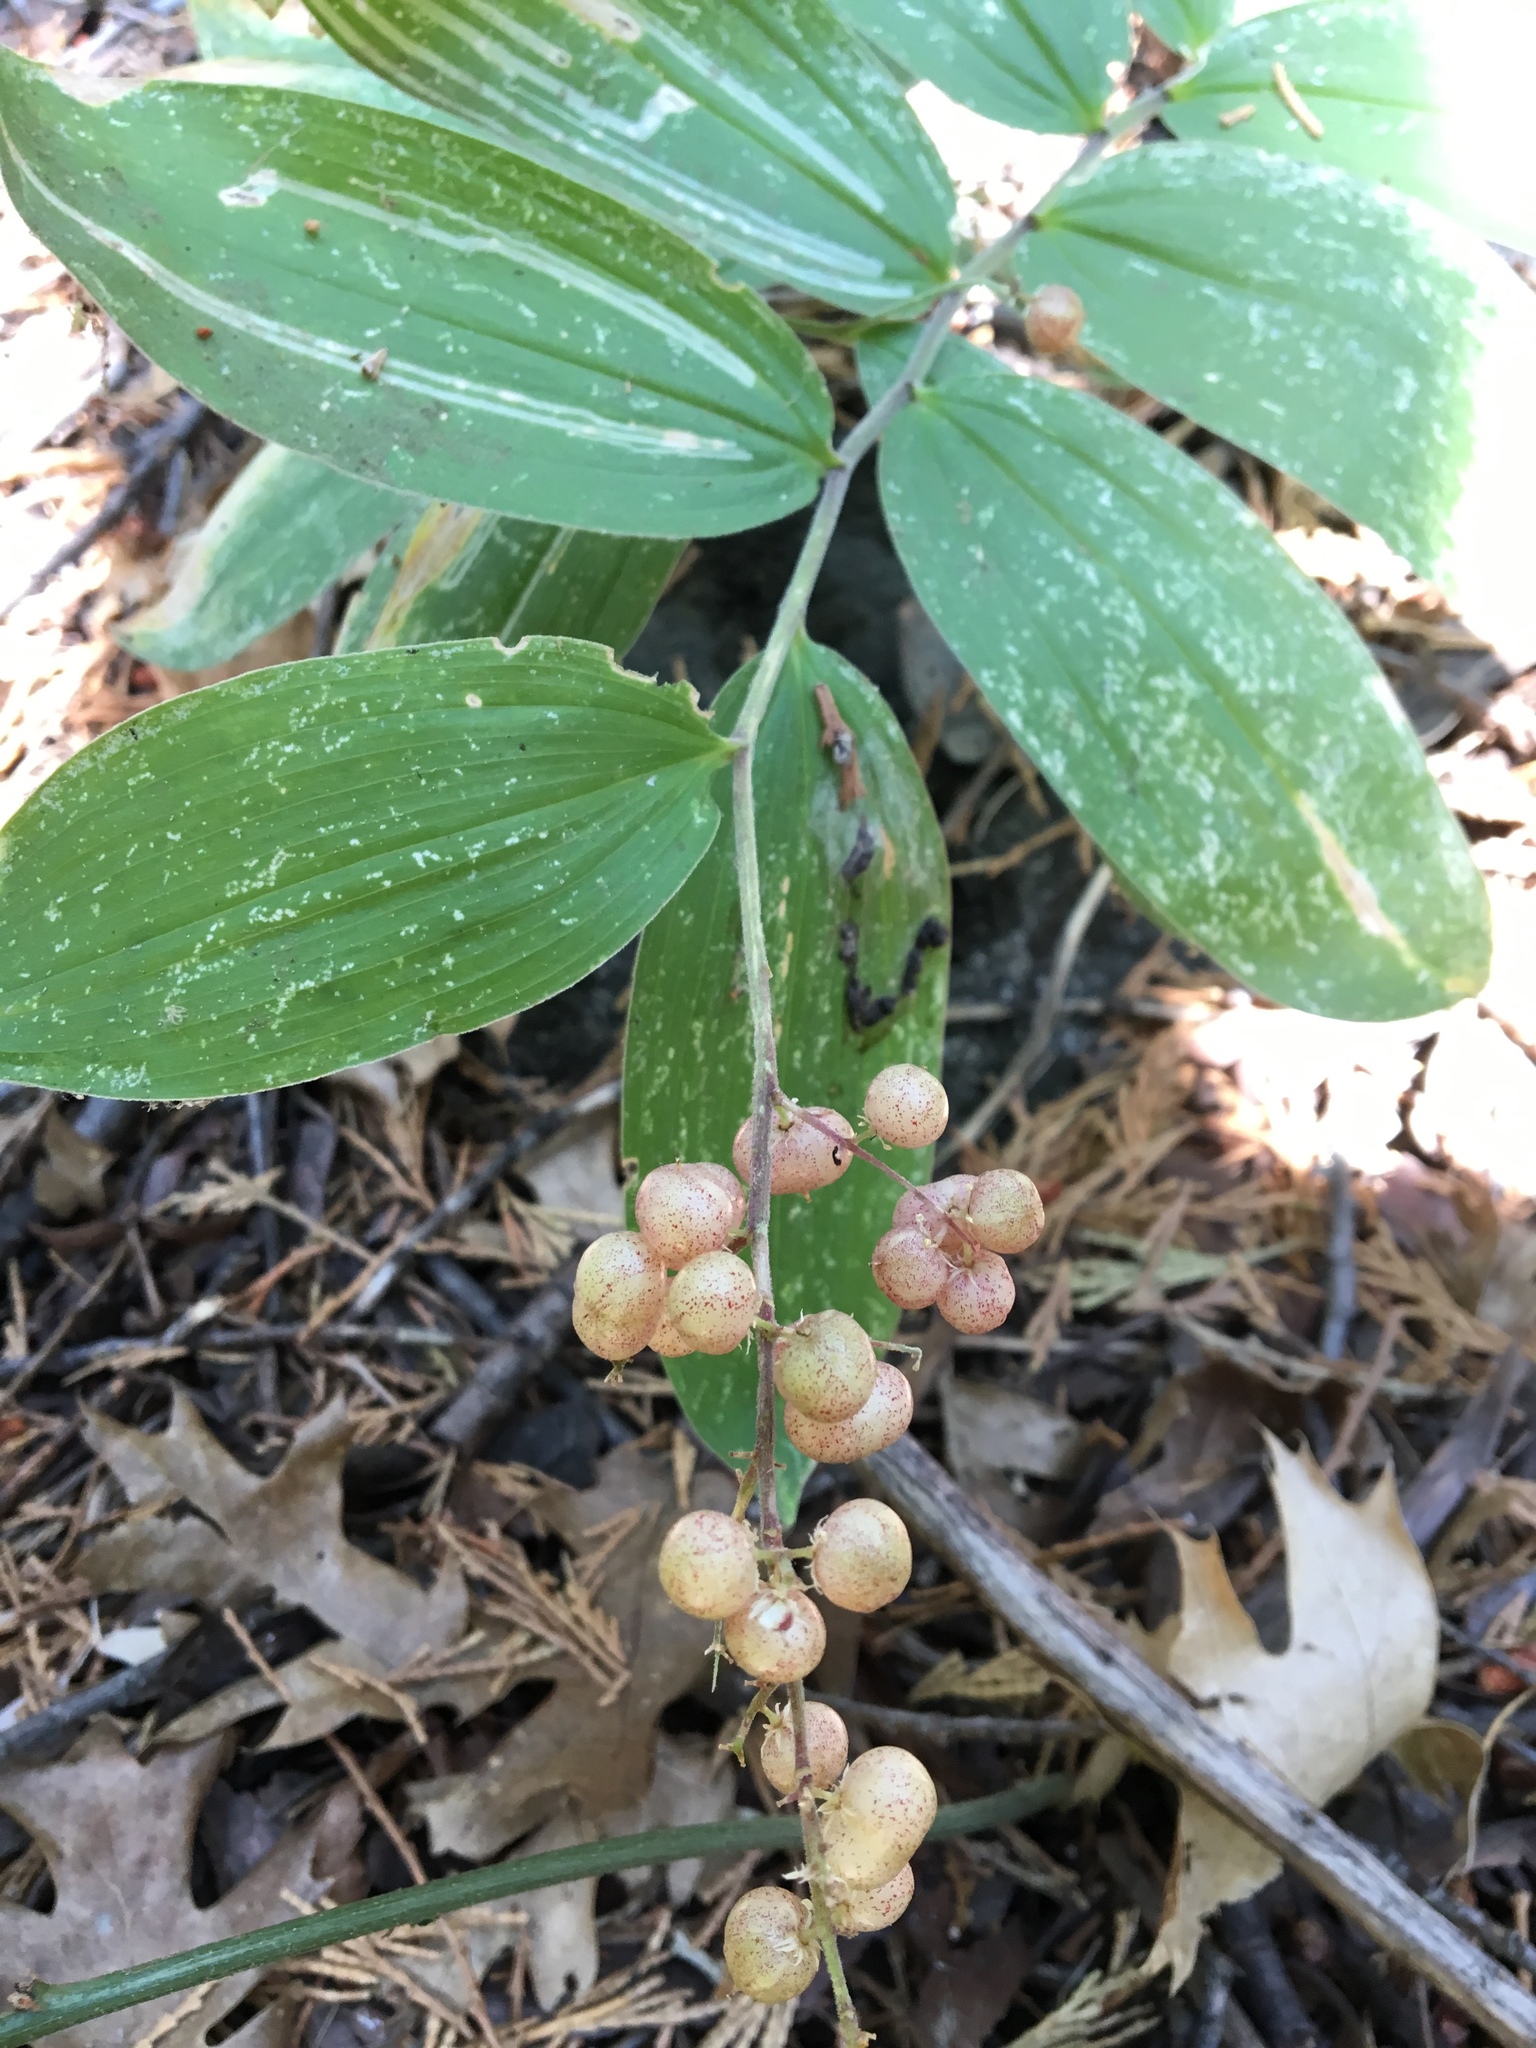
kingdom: Plantae
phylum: Tracheophyta
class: Liliopsida
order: Asparagales
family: Asparagaceae
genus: Maianthemum
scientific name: Maianthemum racemosum
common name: False spikenard
